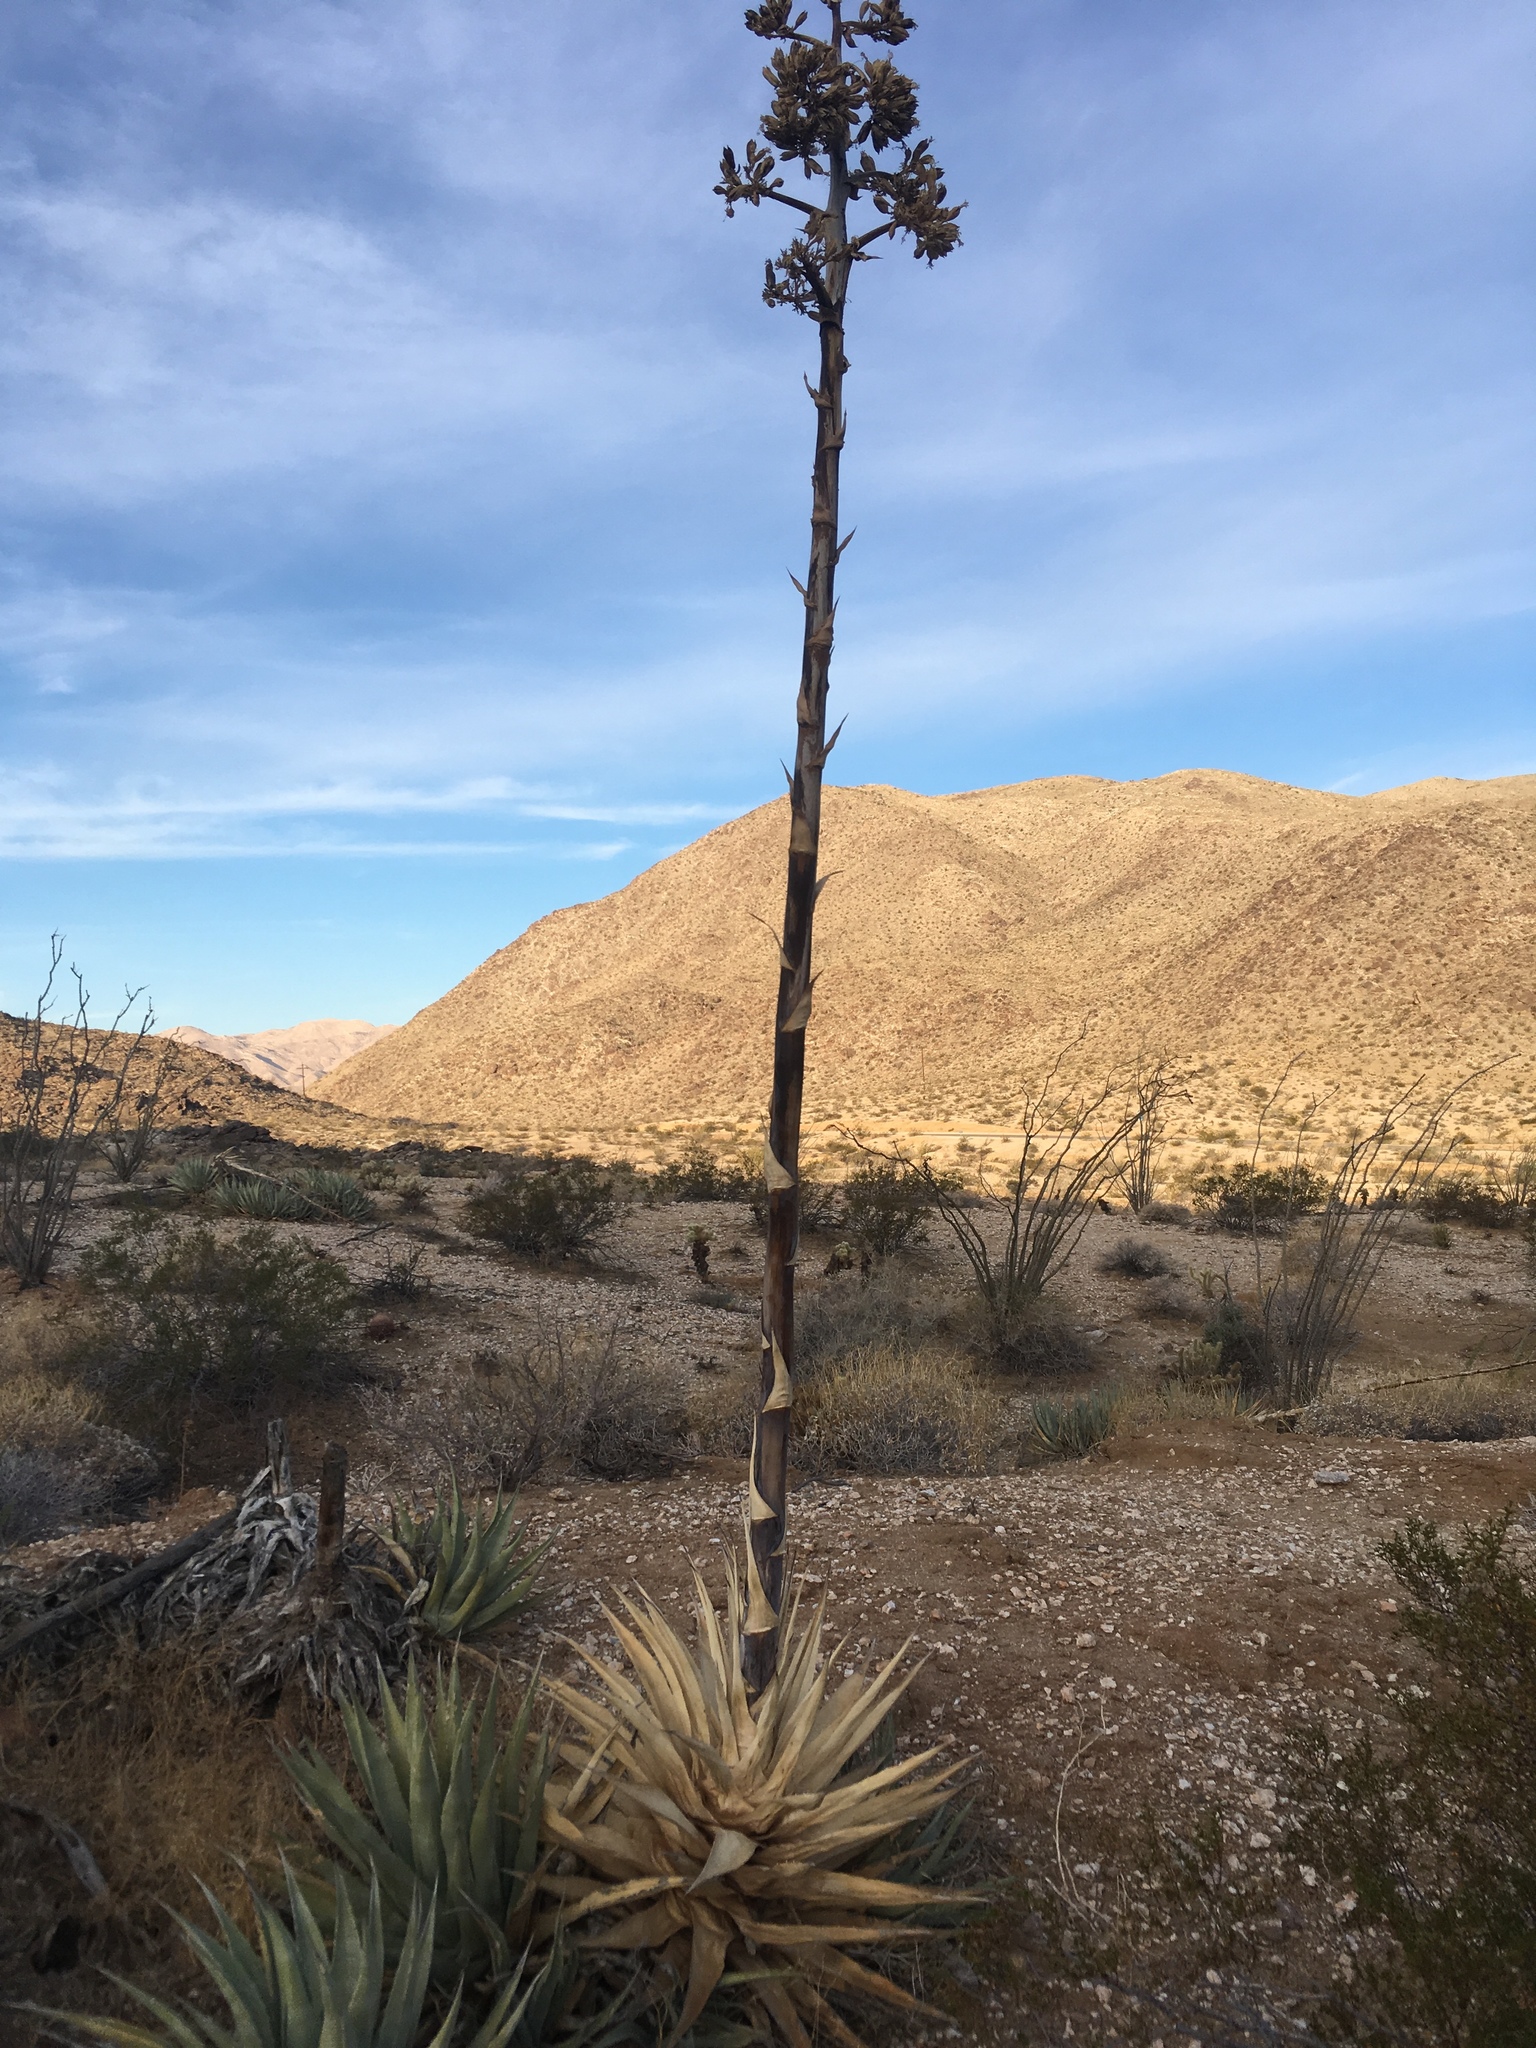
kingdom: Plantae
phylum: Tracheophyta
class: Liliopsida
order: Asparagales
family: Asparagaceae
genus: Agave
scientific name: Agave deserti
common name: Desert agave
